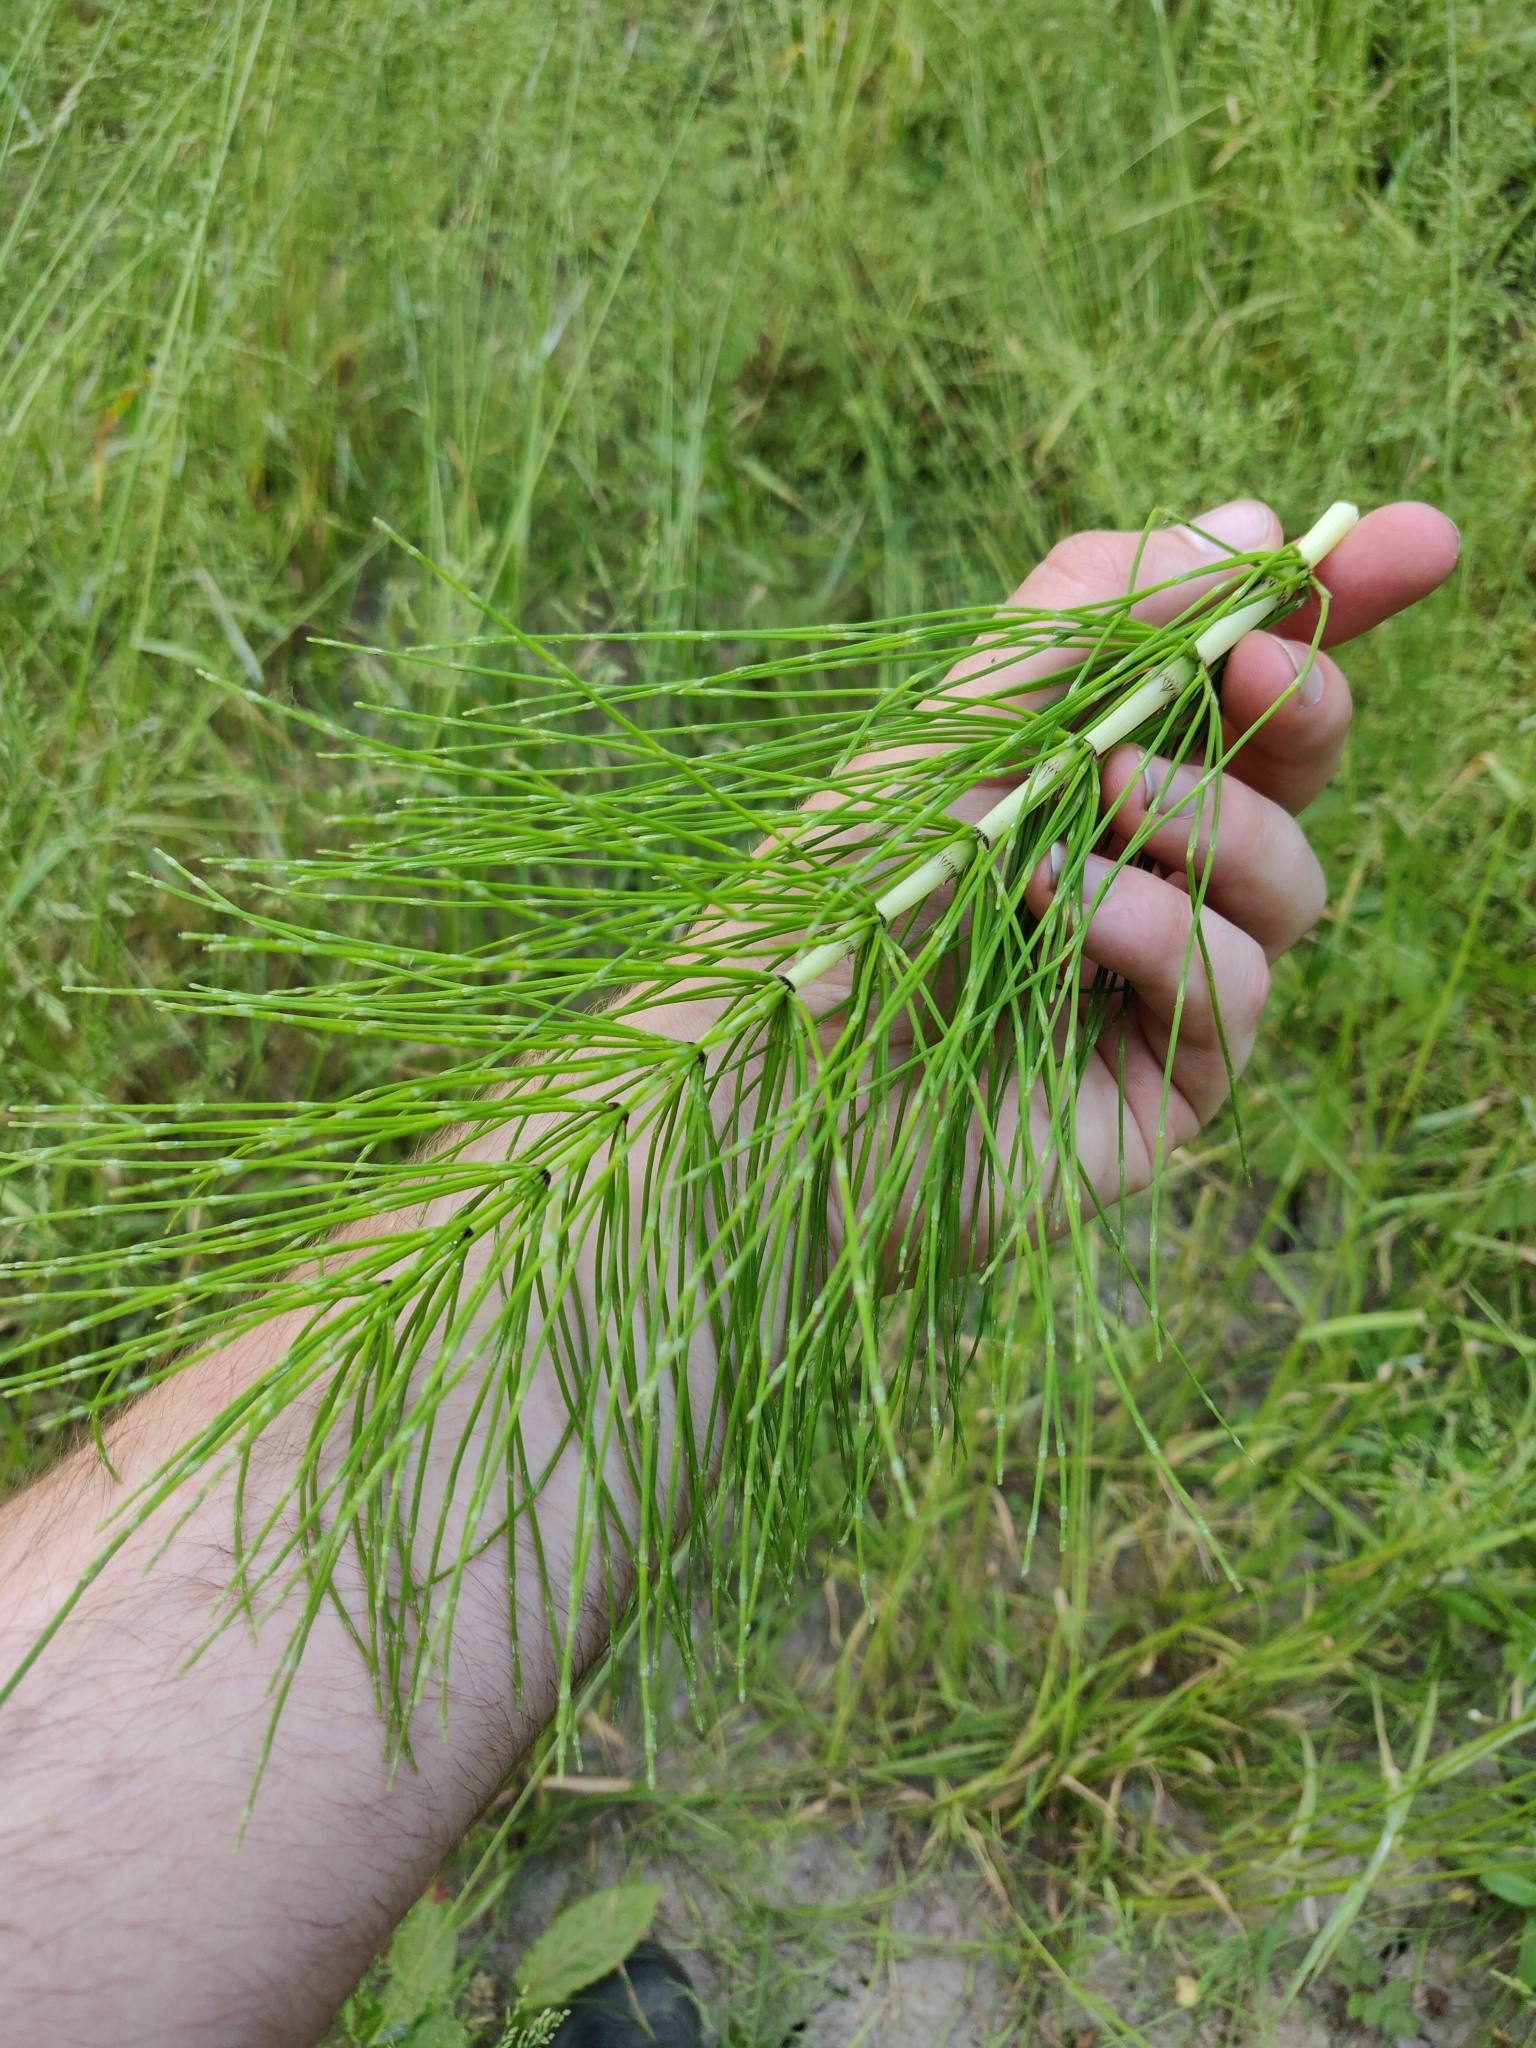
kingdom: Plantae
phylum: Tracheophyta
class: Polypodiopsida
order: Equisetales
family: Equisetaceae
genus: Equisetum
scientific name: Equisetum telmateia
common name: Great horsetail
